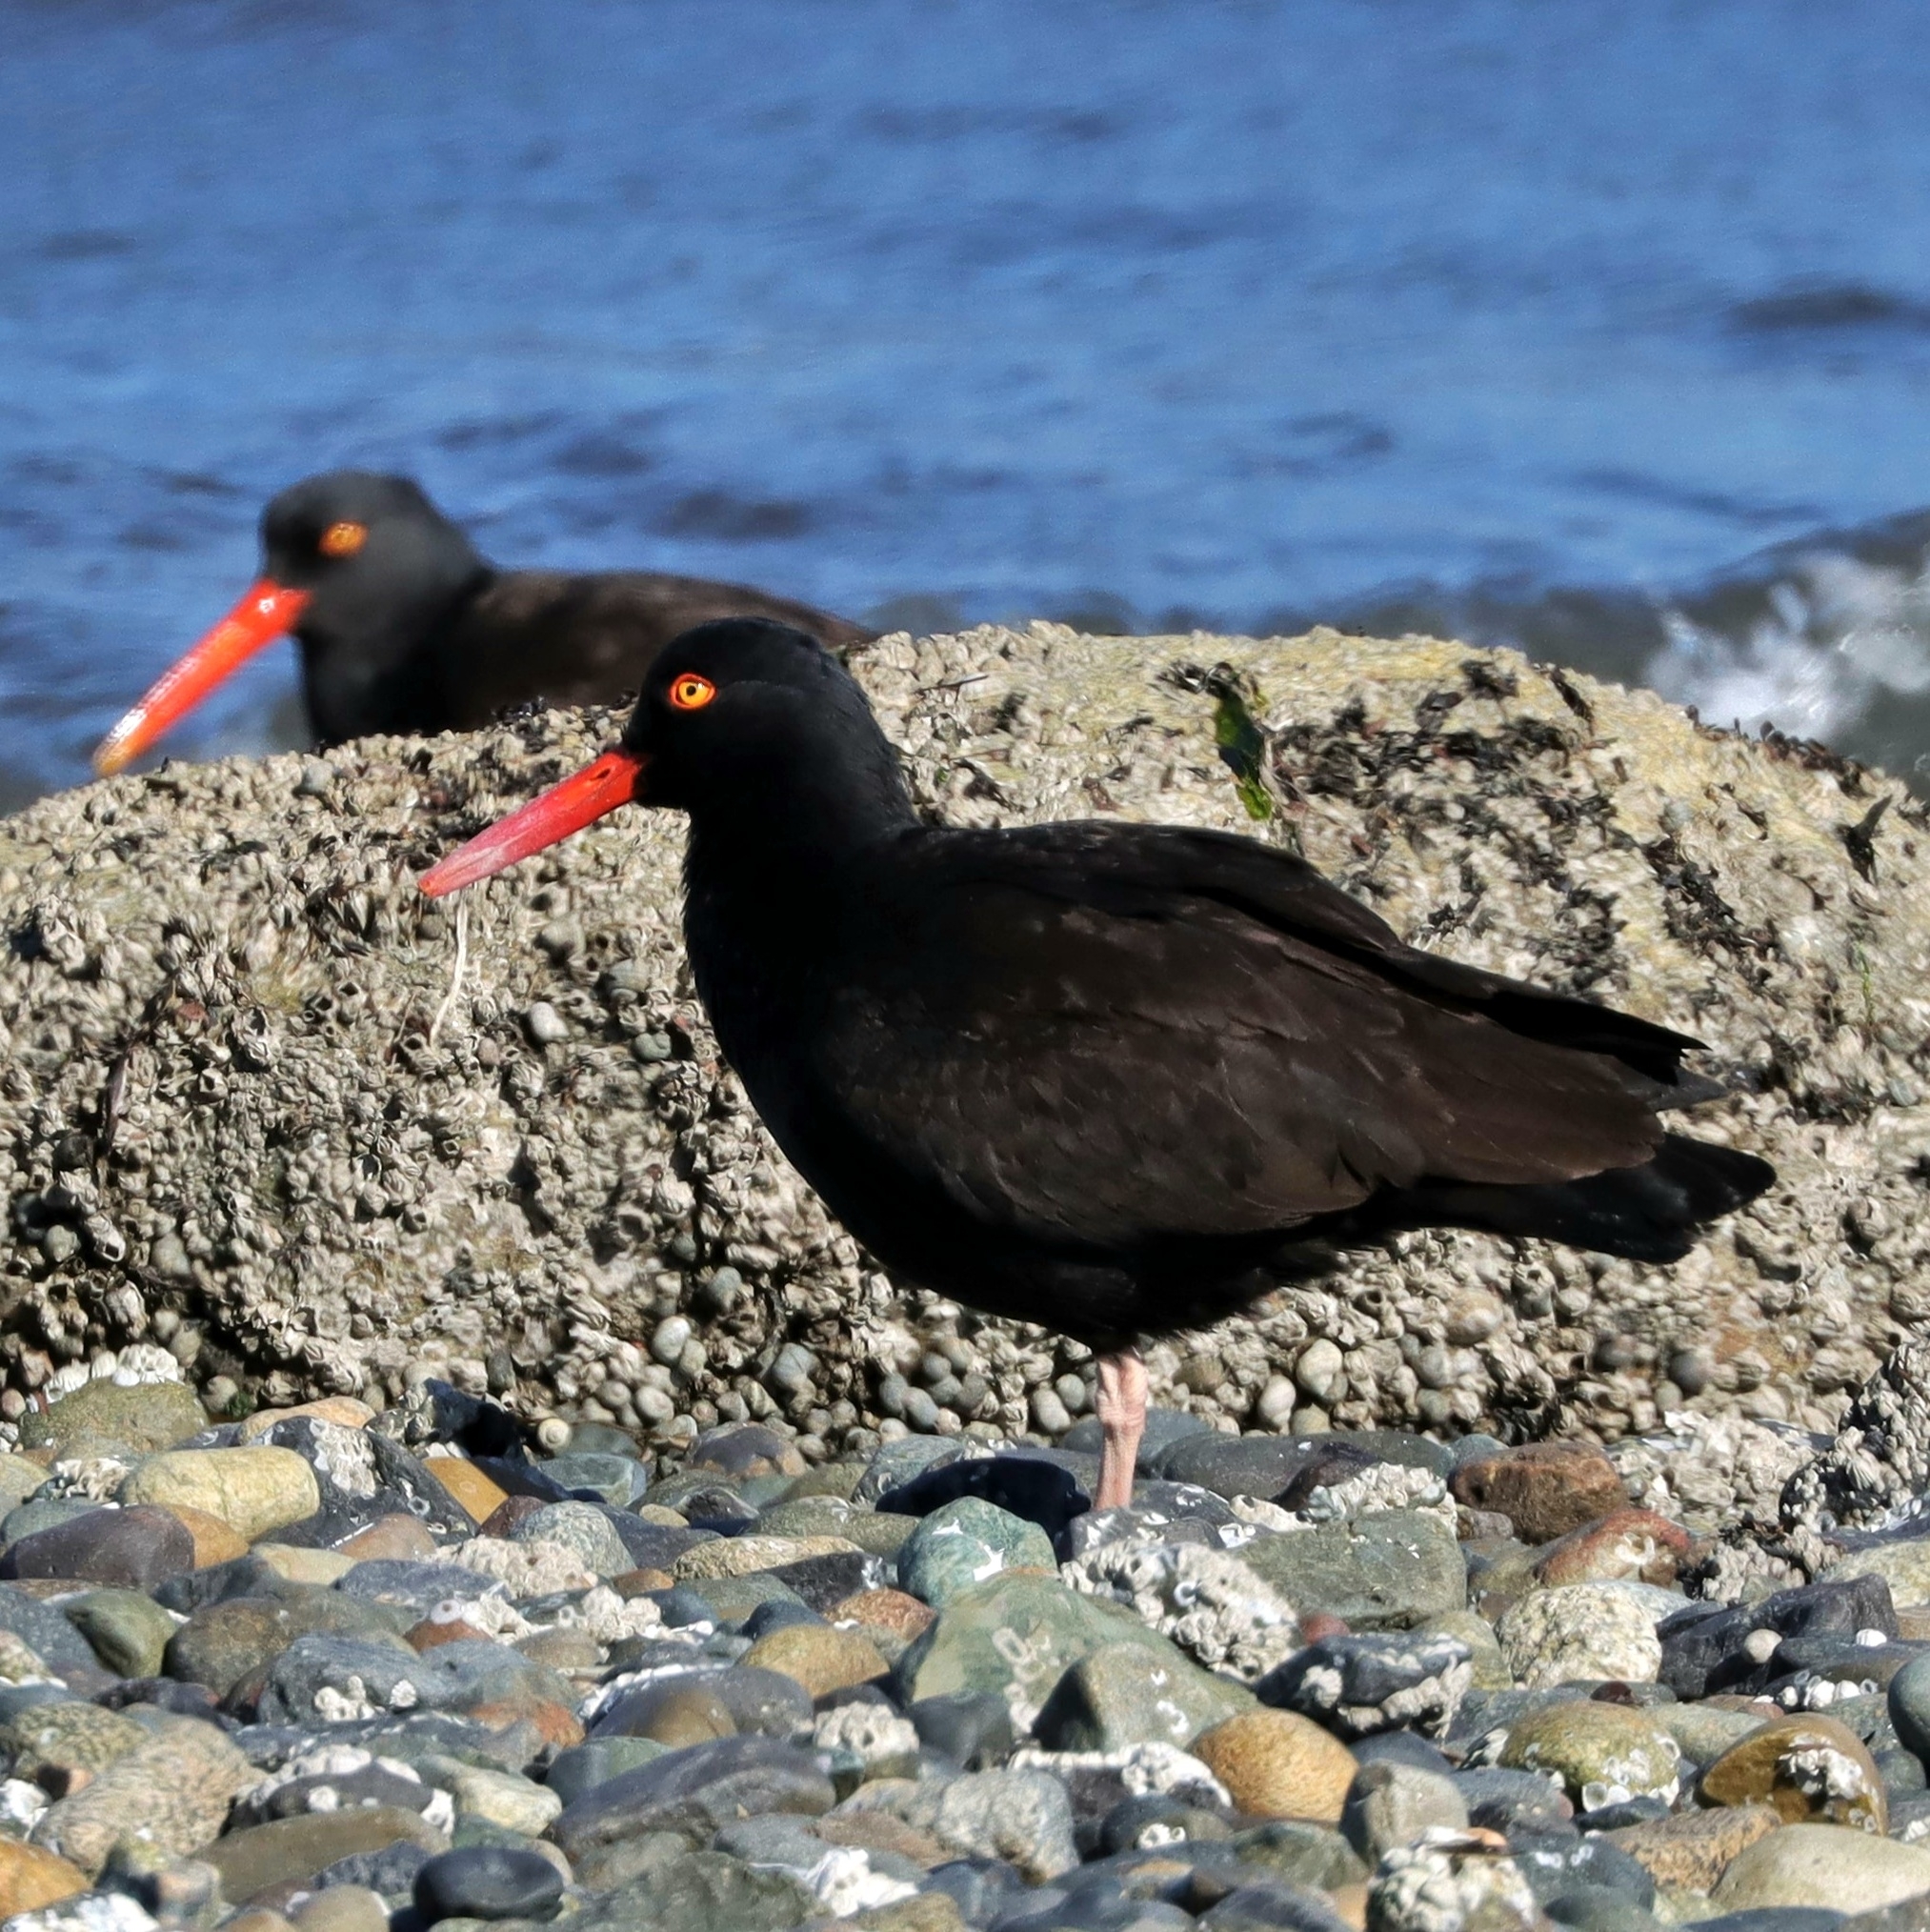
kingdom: Animalia
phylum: Chordata
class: Aves
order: Charadriiformes
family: Haematopodidae
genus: Haematopus
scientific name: Haematopus bachmani
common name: Black oystercatcher
